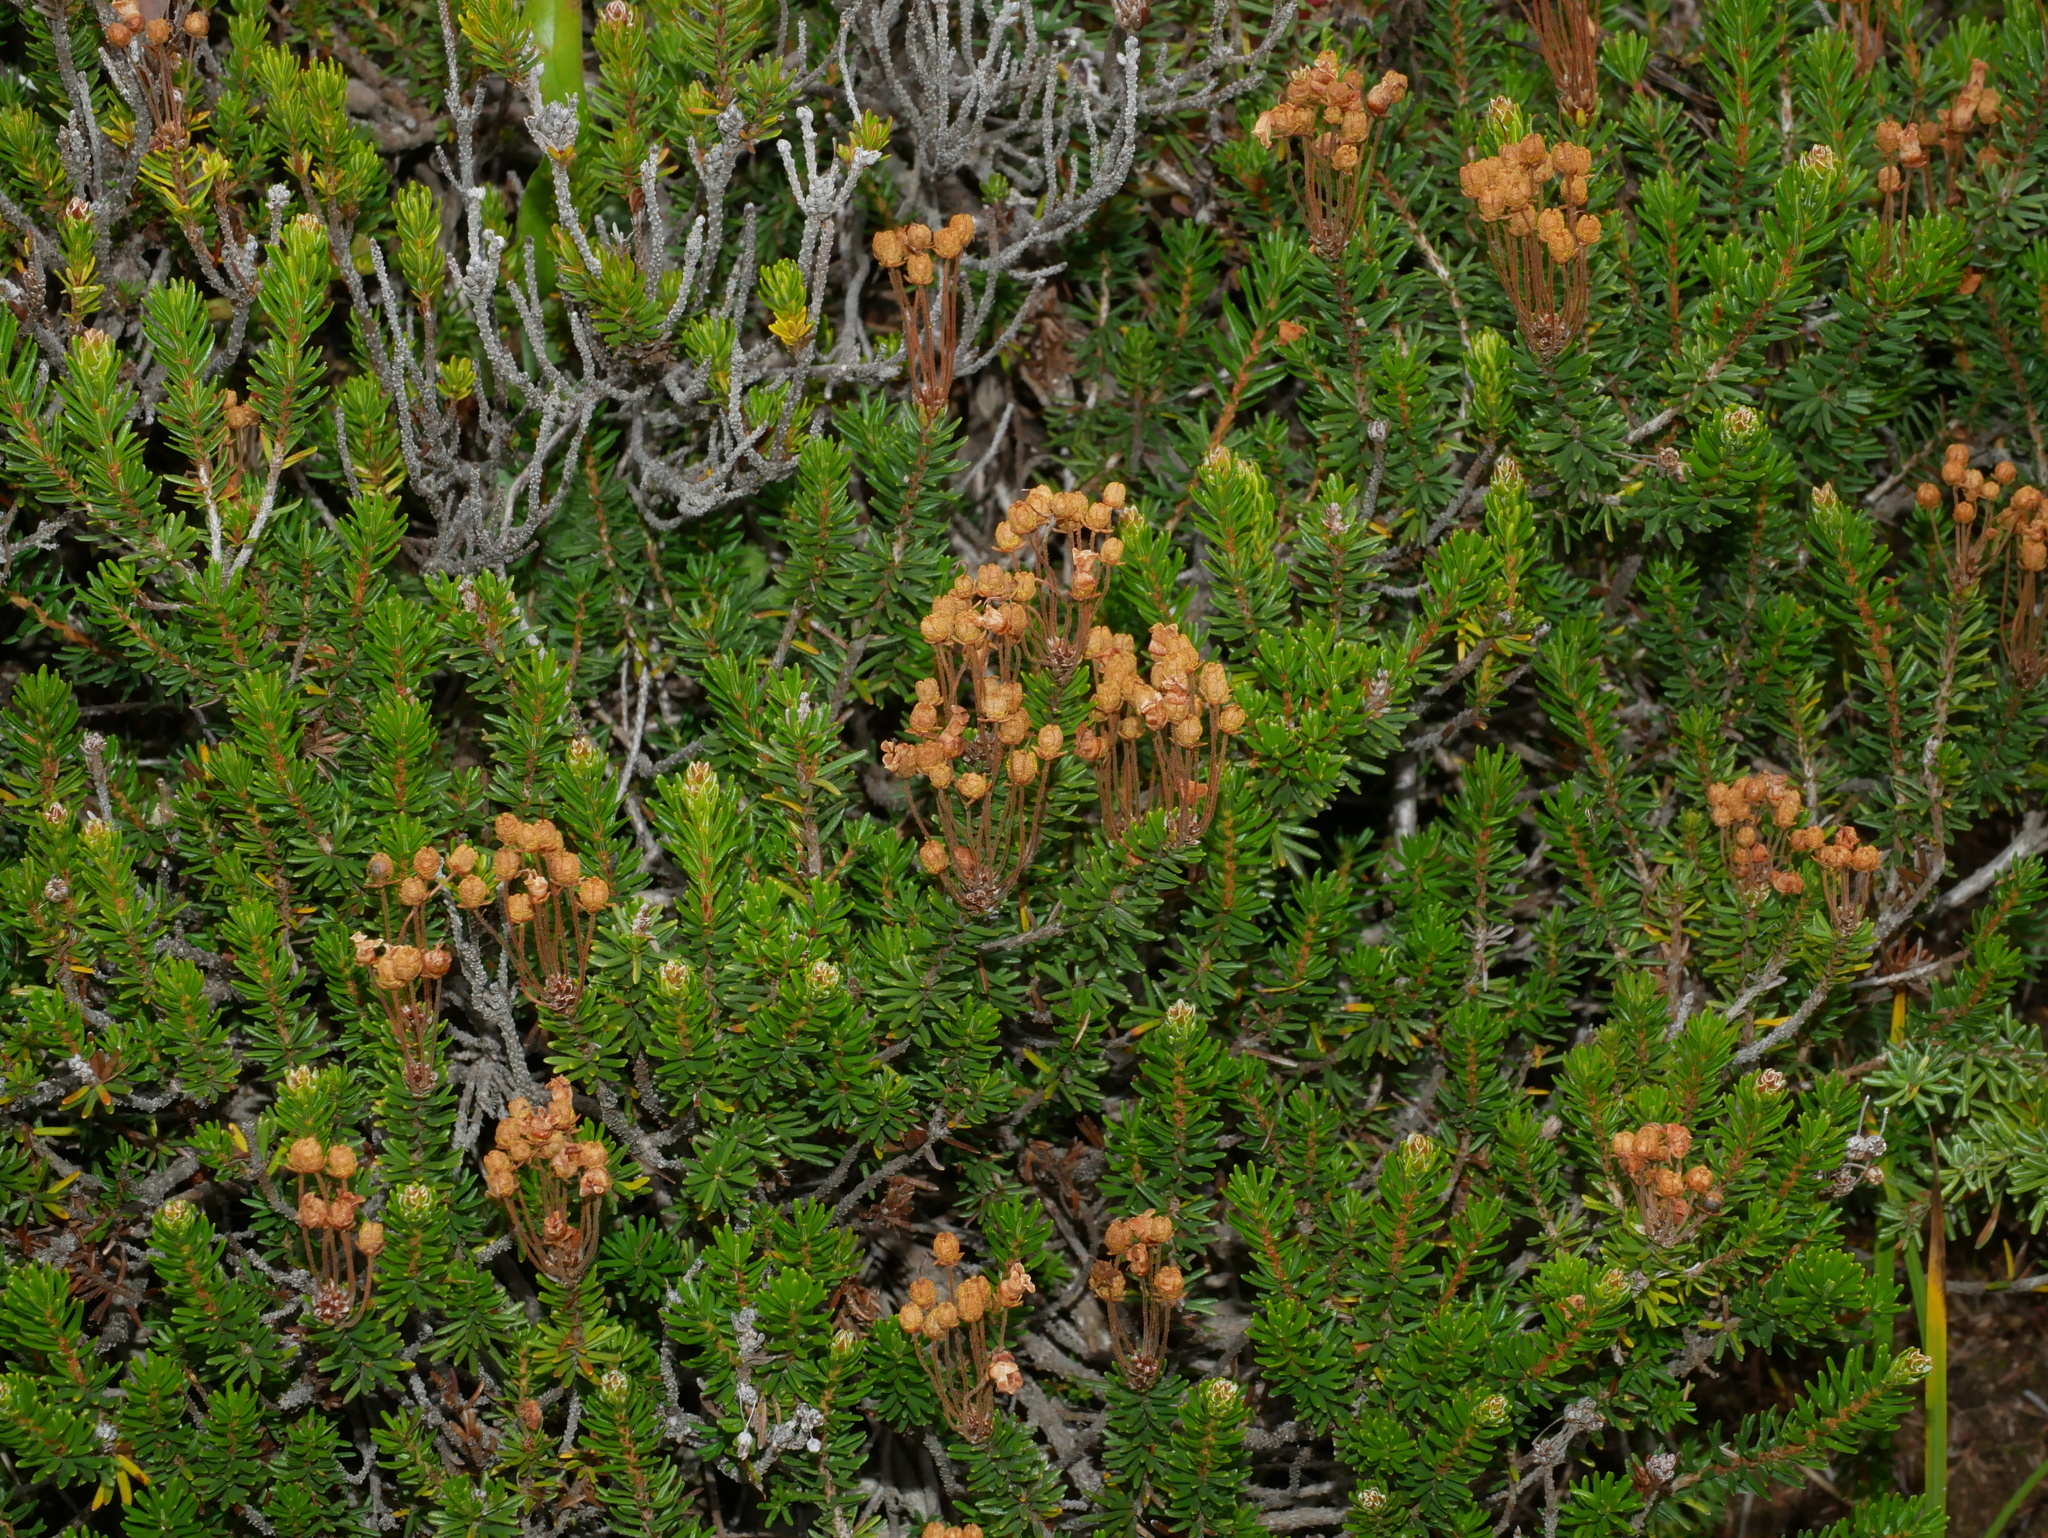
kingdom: Plantae
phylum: Tracheophyta
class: Magnoliopsida
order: Ericales
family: Ericaceae
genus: Phyllodoce
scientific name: Phyllodoce empetriformis
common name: Pink mountain heather
